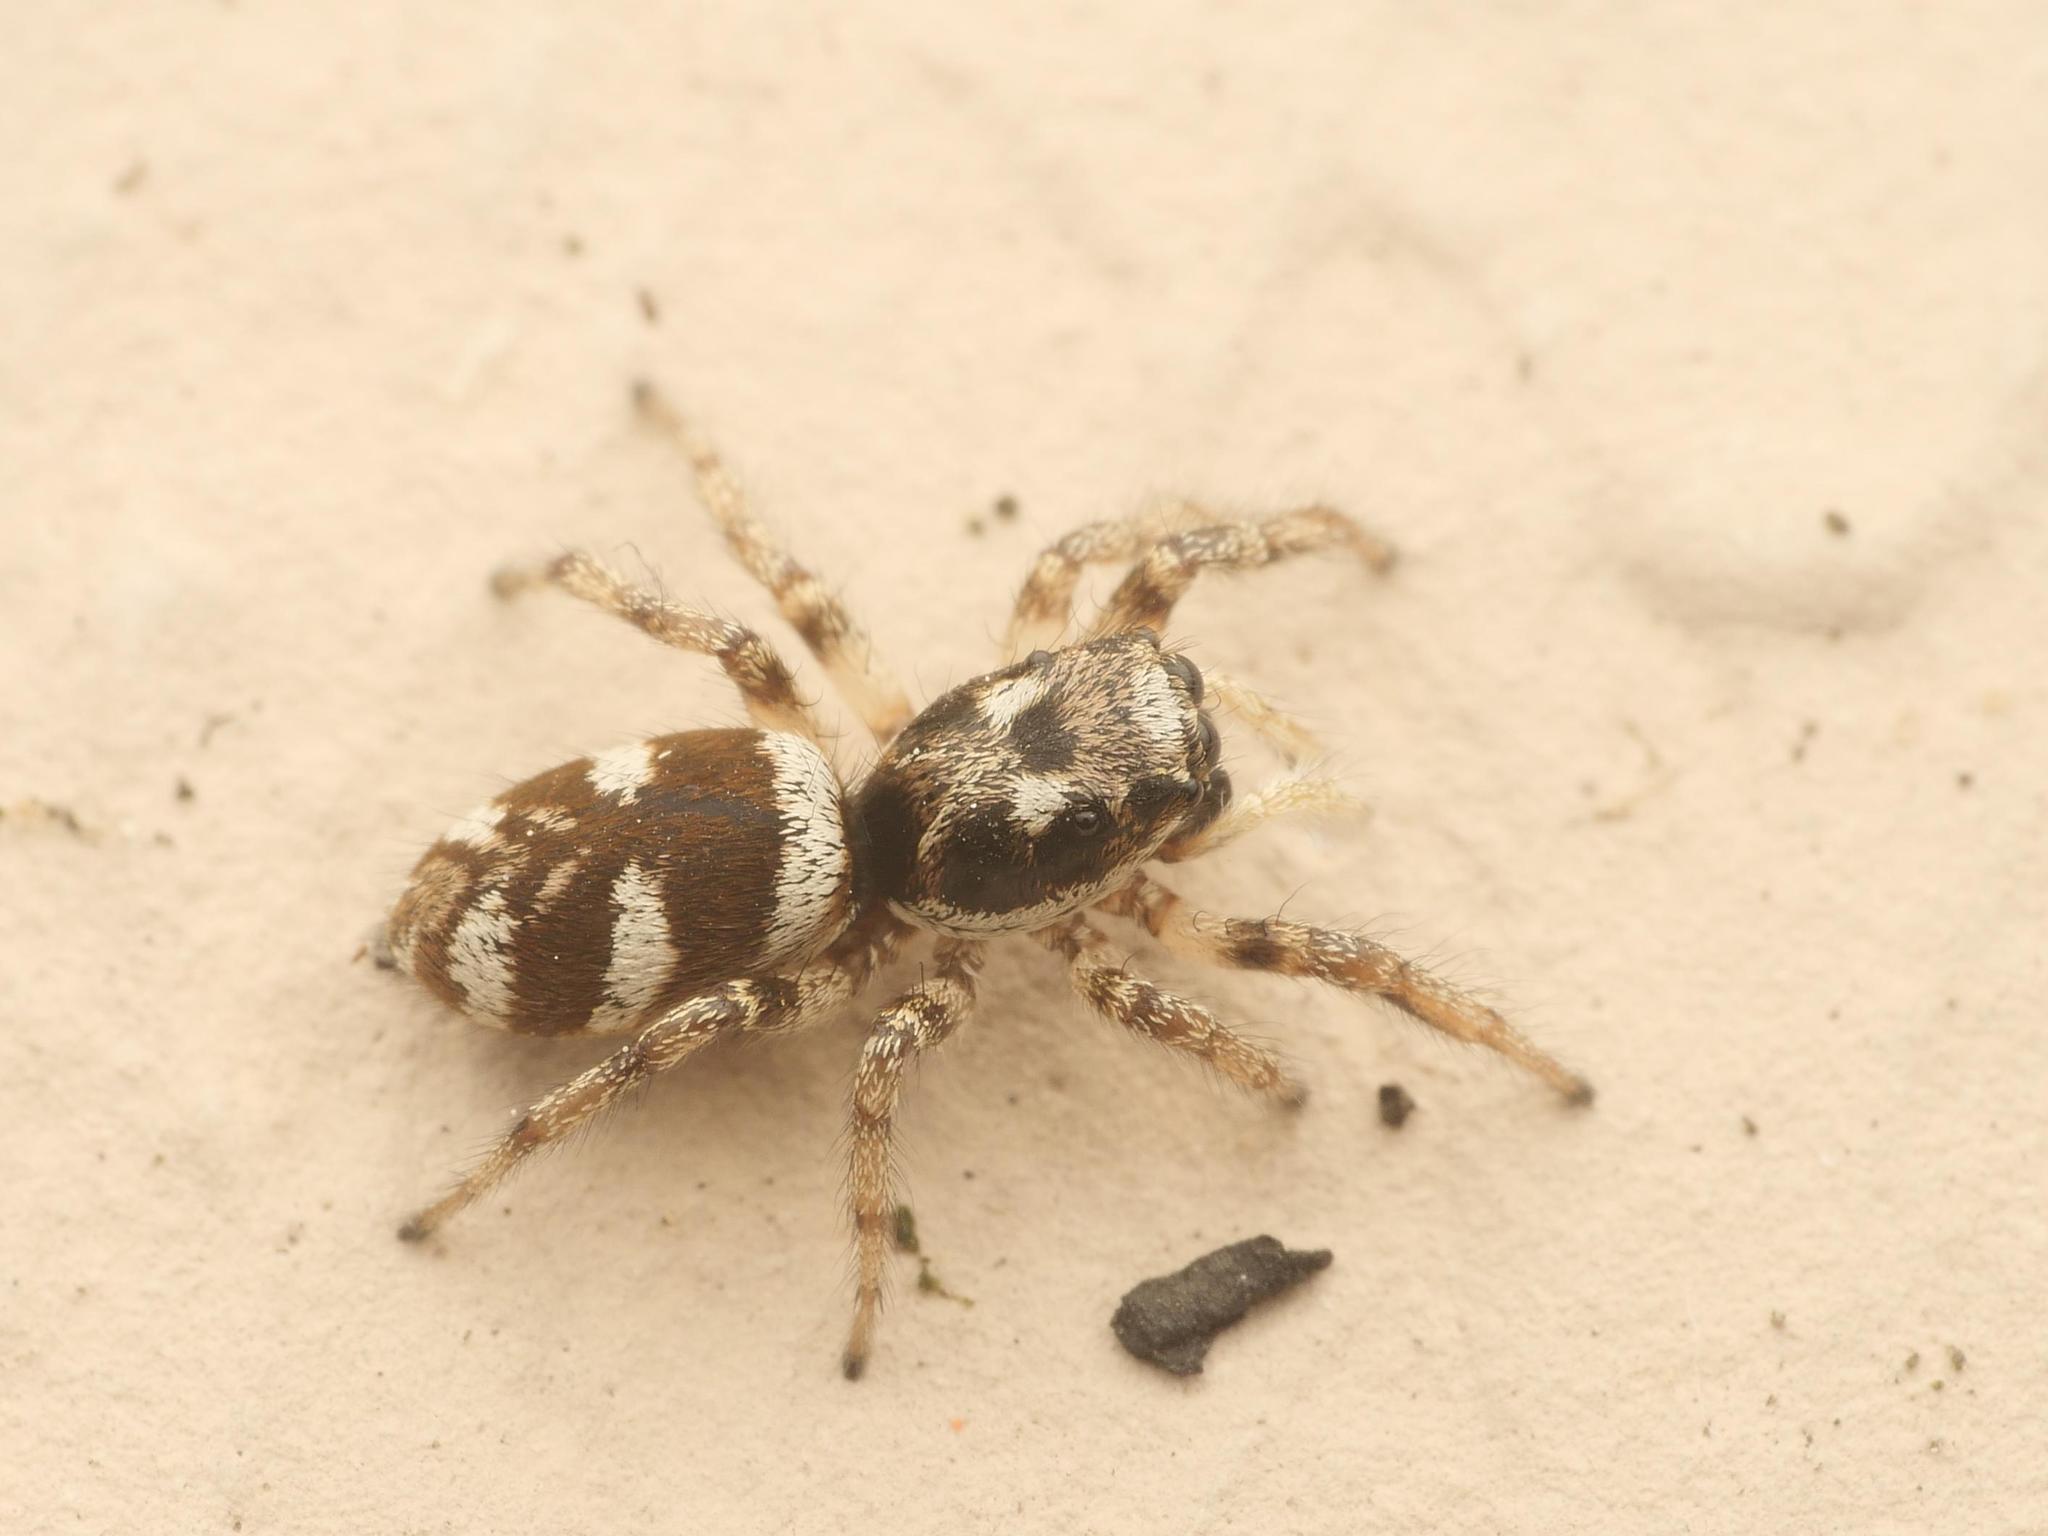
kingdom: Animalia
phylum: Arthropoda
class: Arachnida
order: Araneae
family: Salticidae
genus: Salticus
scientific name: Salticus scenicus
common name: Zebra jumper
